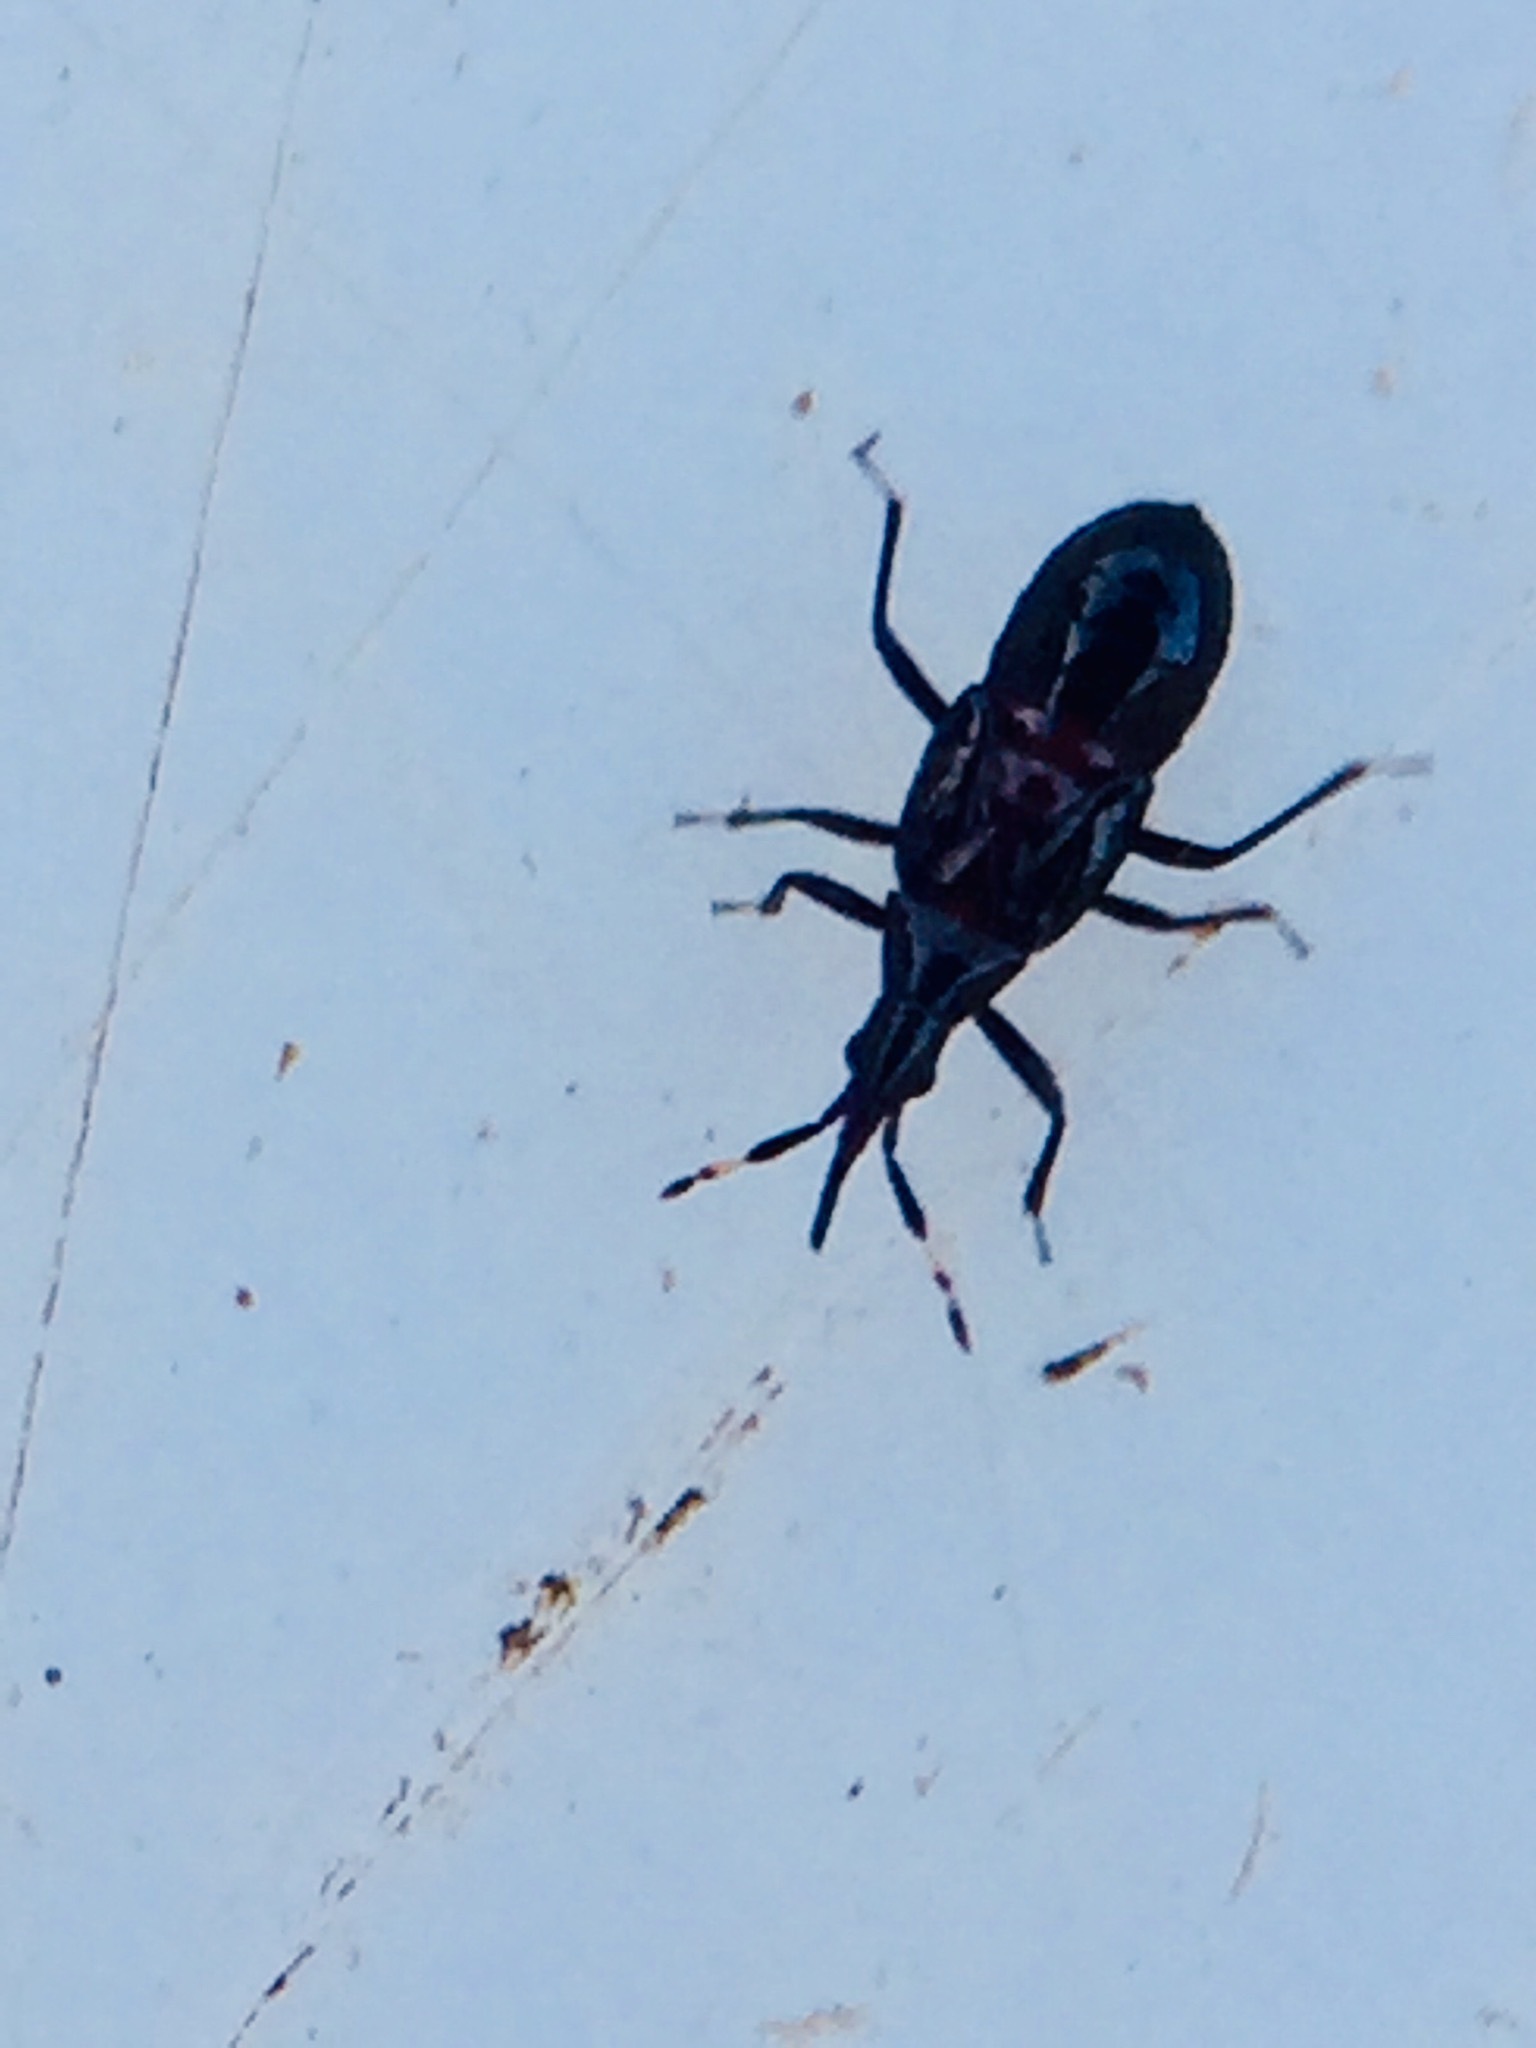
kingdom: Animalia
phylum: Arthropoda
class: Insecta
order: Hemiptera
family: Anthocoridae
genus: Macrotrachelia
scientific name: Macrotrachelia nigronitens
